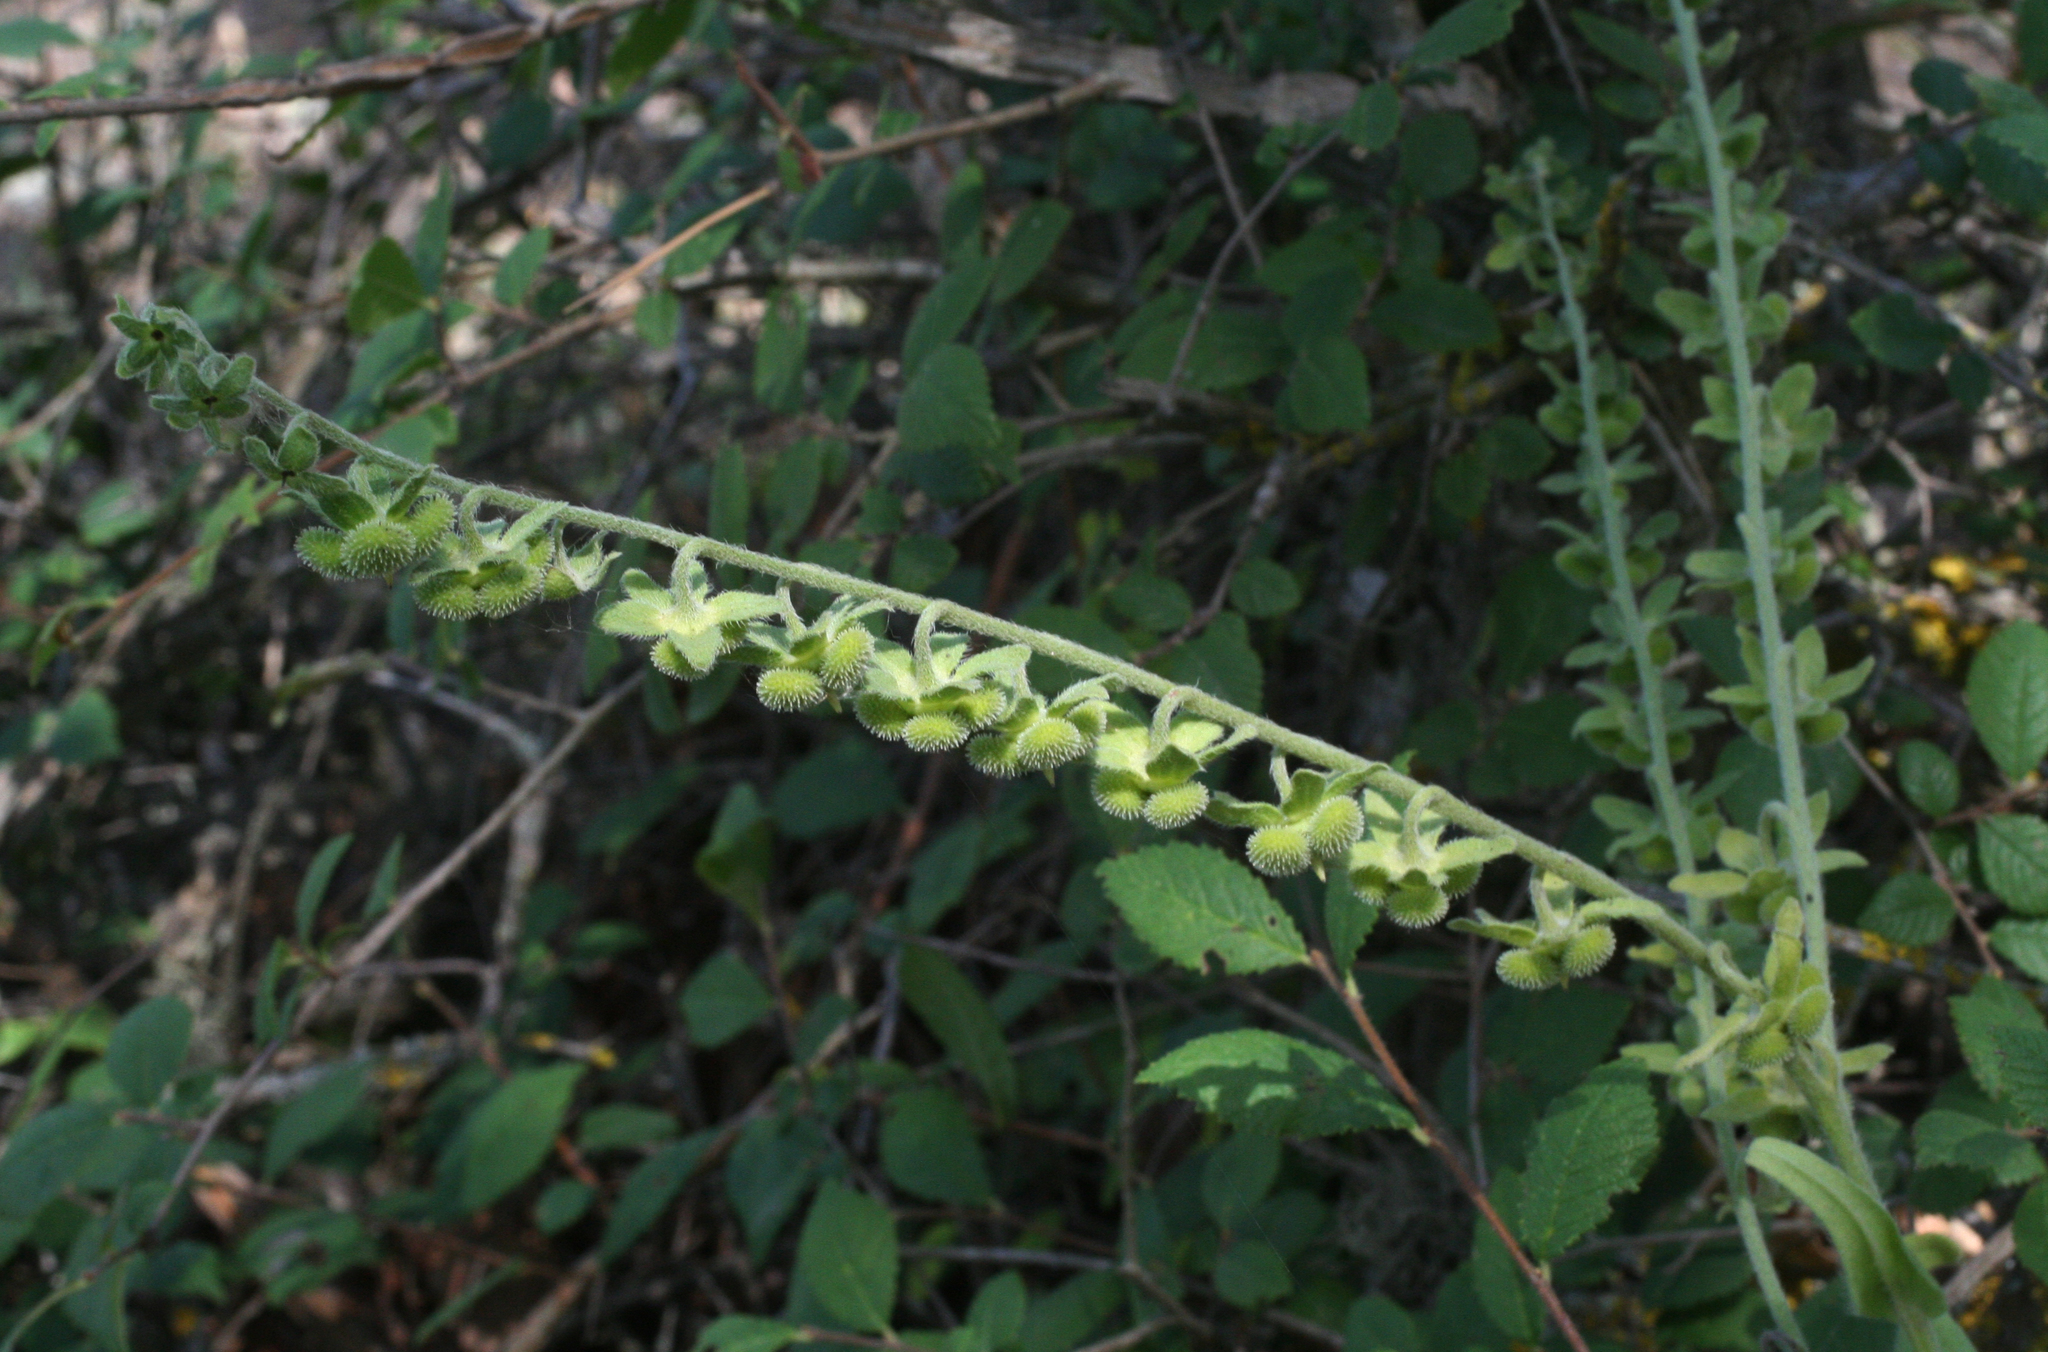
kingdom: Plantae
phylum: Tracheophyta
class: Magnoliopsida
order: Boraginales
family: Boraginaceae
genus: Cynoglossum
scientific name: Cynoglossum officinale
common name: Hound's-tongue
